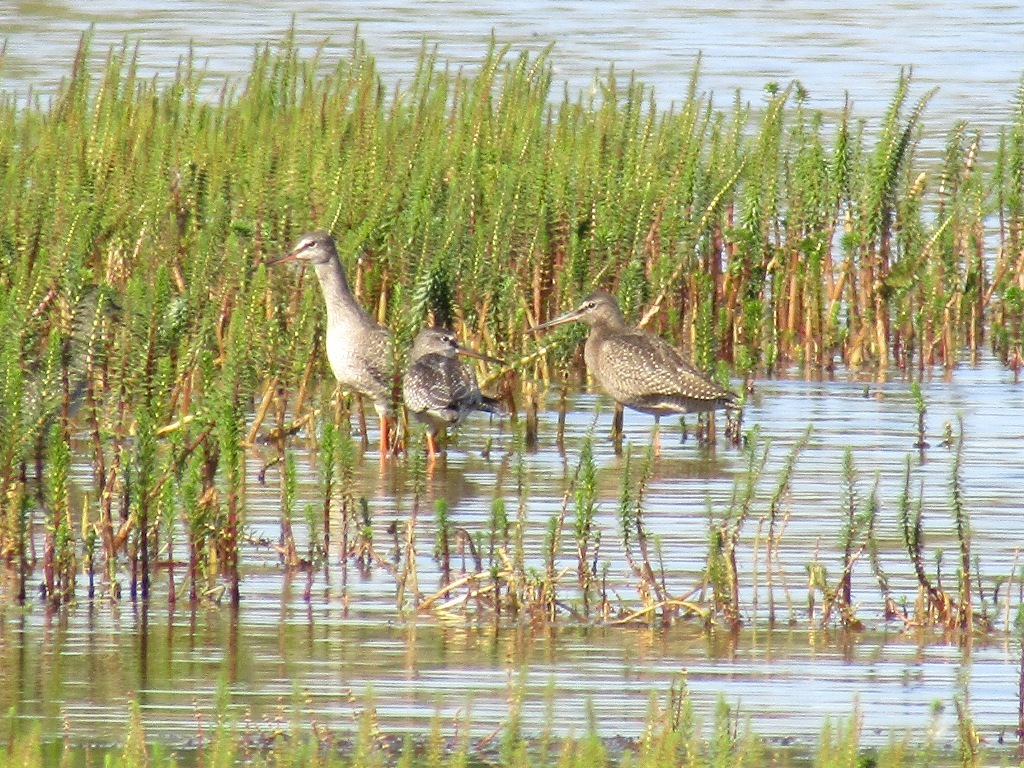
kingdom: Animalia
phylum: Chordata
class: Aves
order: Charadriiformes
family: Scolopacidae
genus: Tringa
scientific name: Tringa erythropus
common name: Spotted redshank
